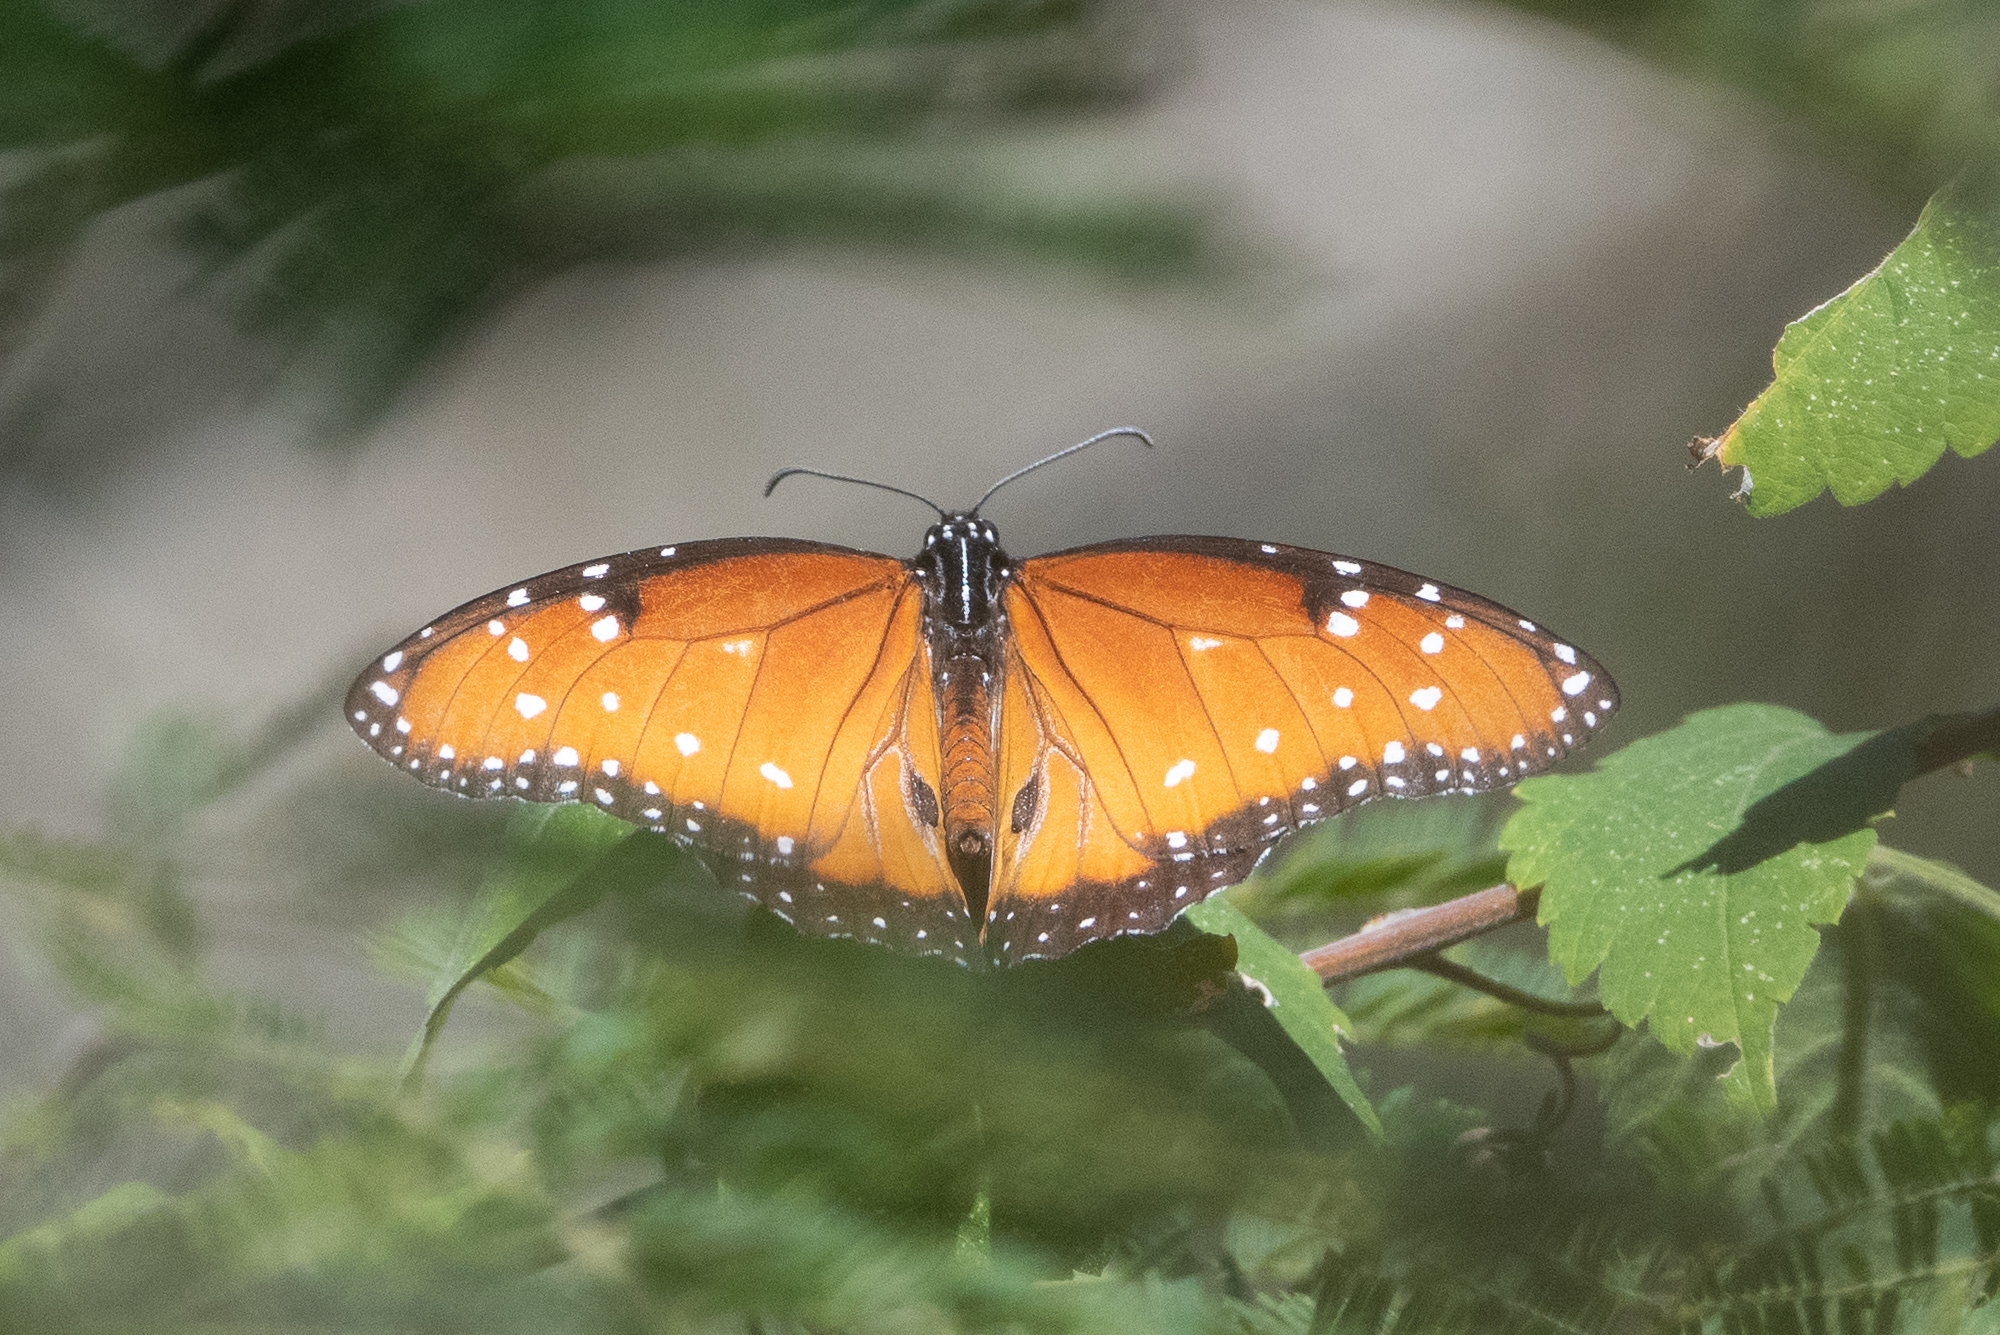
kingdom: Animalia
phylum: Arthropoda
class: Insecta
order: Lepidoptera
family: Nymphalidae
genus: Danaus
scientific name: Danaus gilippus
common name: Queen
